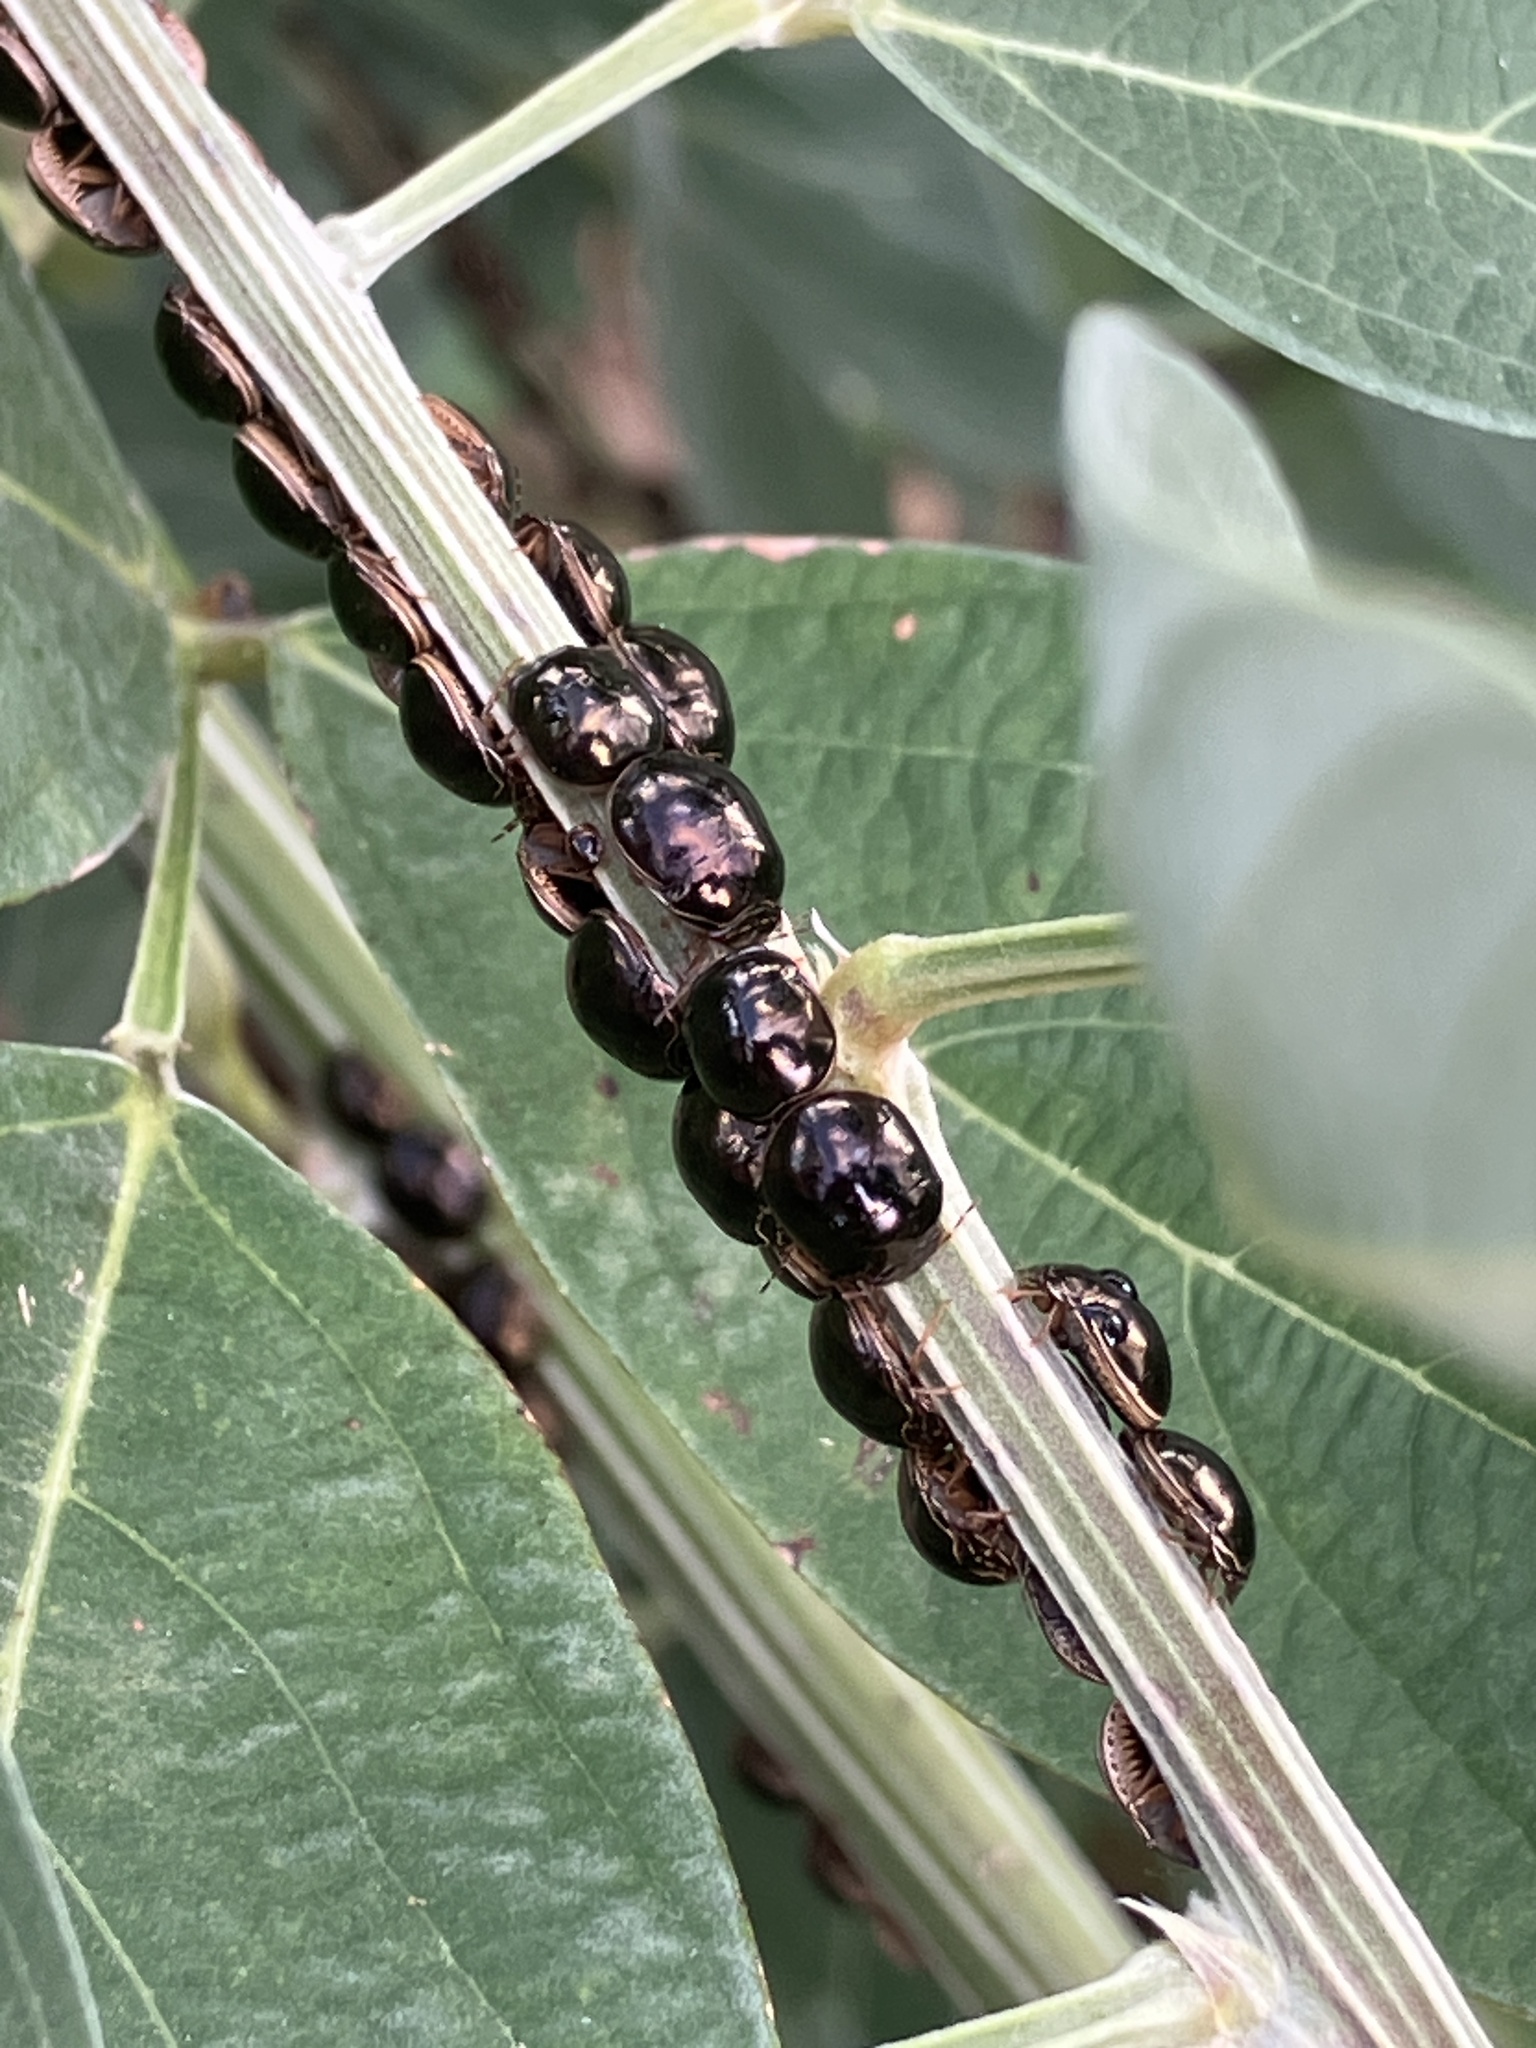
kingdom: Animalia
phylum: Arthropoda
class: Insecta
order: Hemiptera
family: Plataspidae
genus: Brachyplatys
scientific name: Brachyplatys subaeneus
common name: Black bean bug
